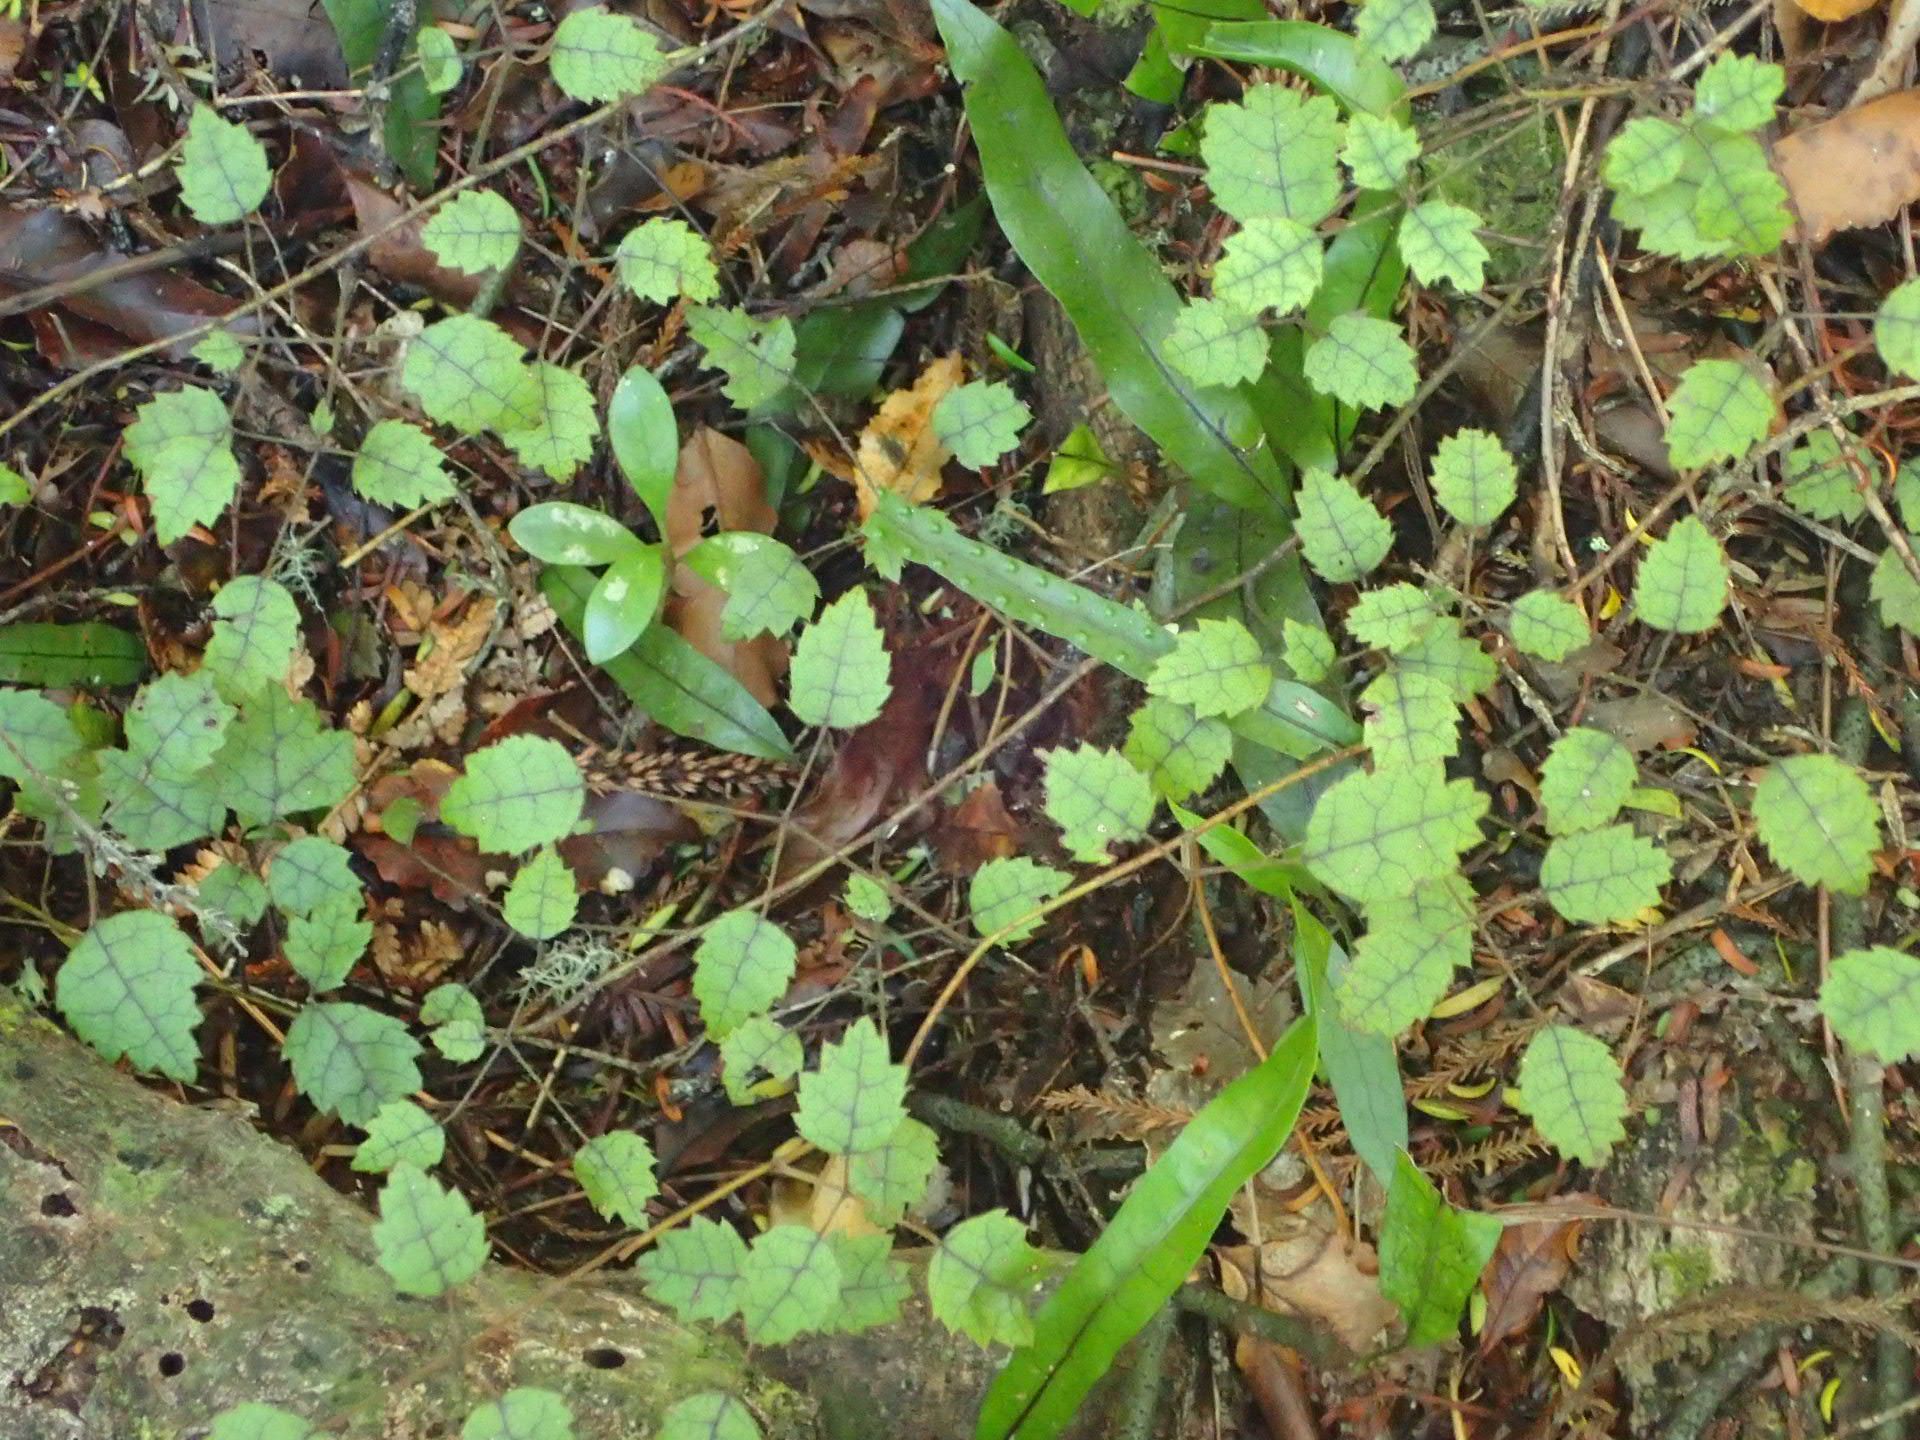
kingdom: Plantae
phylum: Tracheophyta
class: Magnoliopsida
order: Rosales
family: Rosaceae
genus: Rubus
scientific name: Rubus australis
